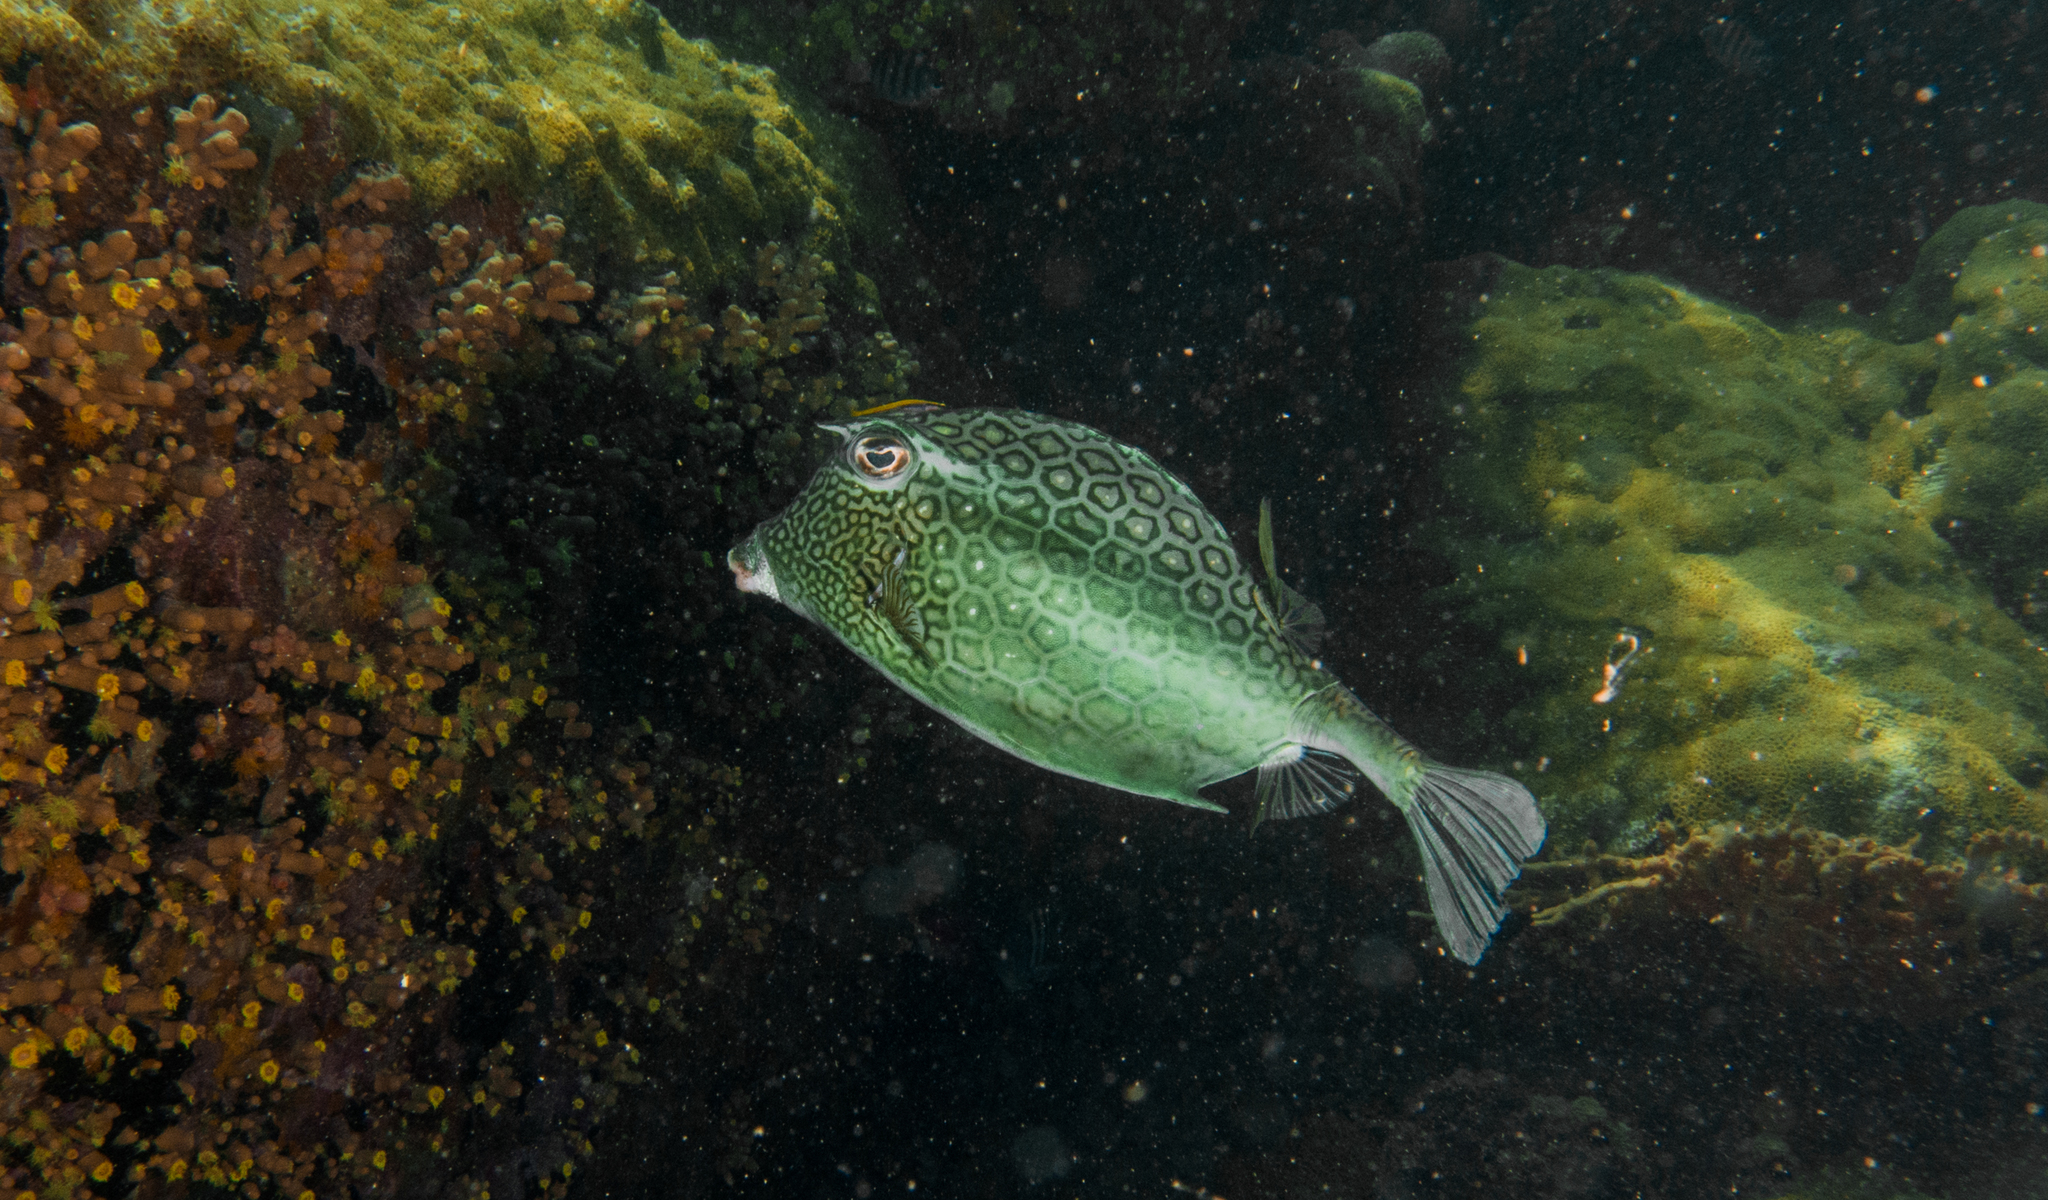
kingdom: Animalia
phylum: Chordata
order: Tetraodontiformes
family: Ostraciidae
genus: Acanthostracion
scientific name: Acanthostracion polygonius
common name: Honeycomb cowfish
